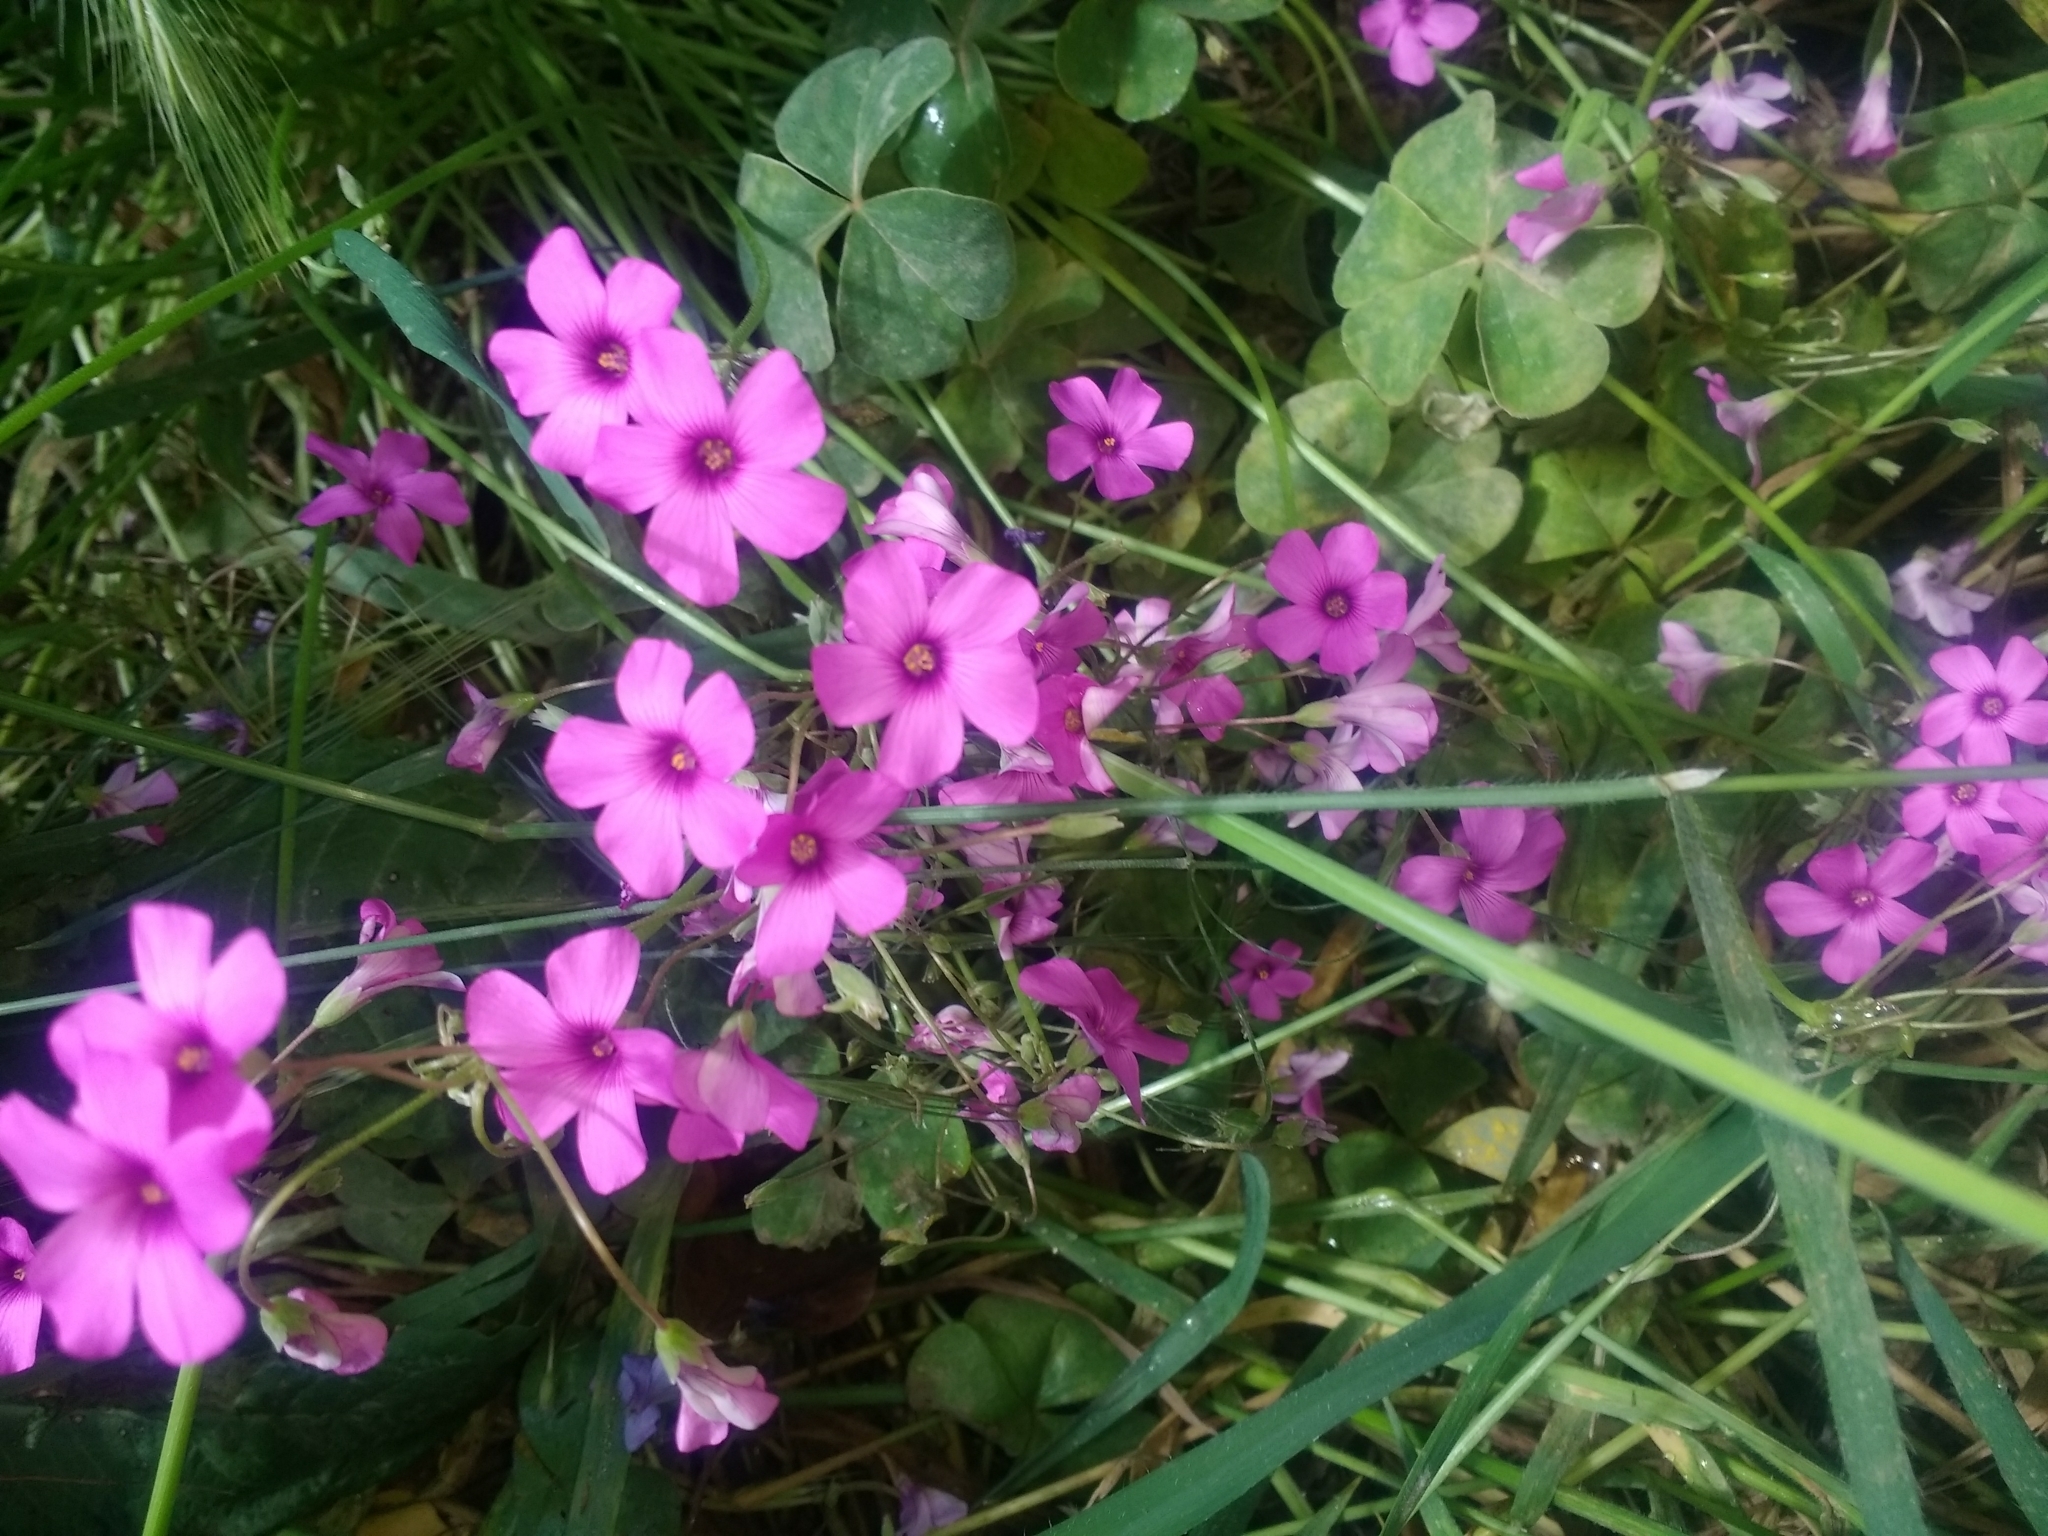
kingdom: Plantae
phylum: Tracheophyta
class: Magnoliopsida
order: Oxalidales
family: Oxalidaceae
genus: Oxalis
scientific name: Oxalis articulata
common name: Pink-sorrel
